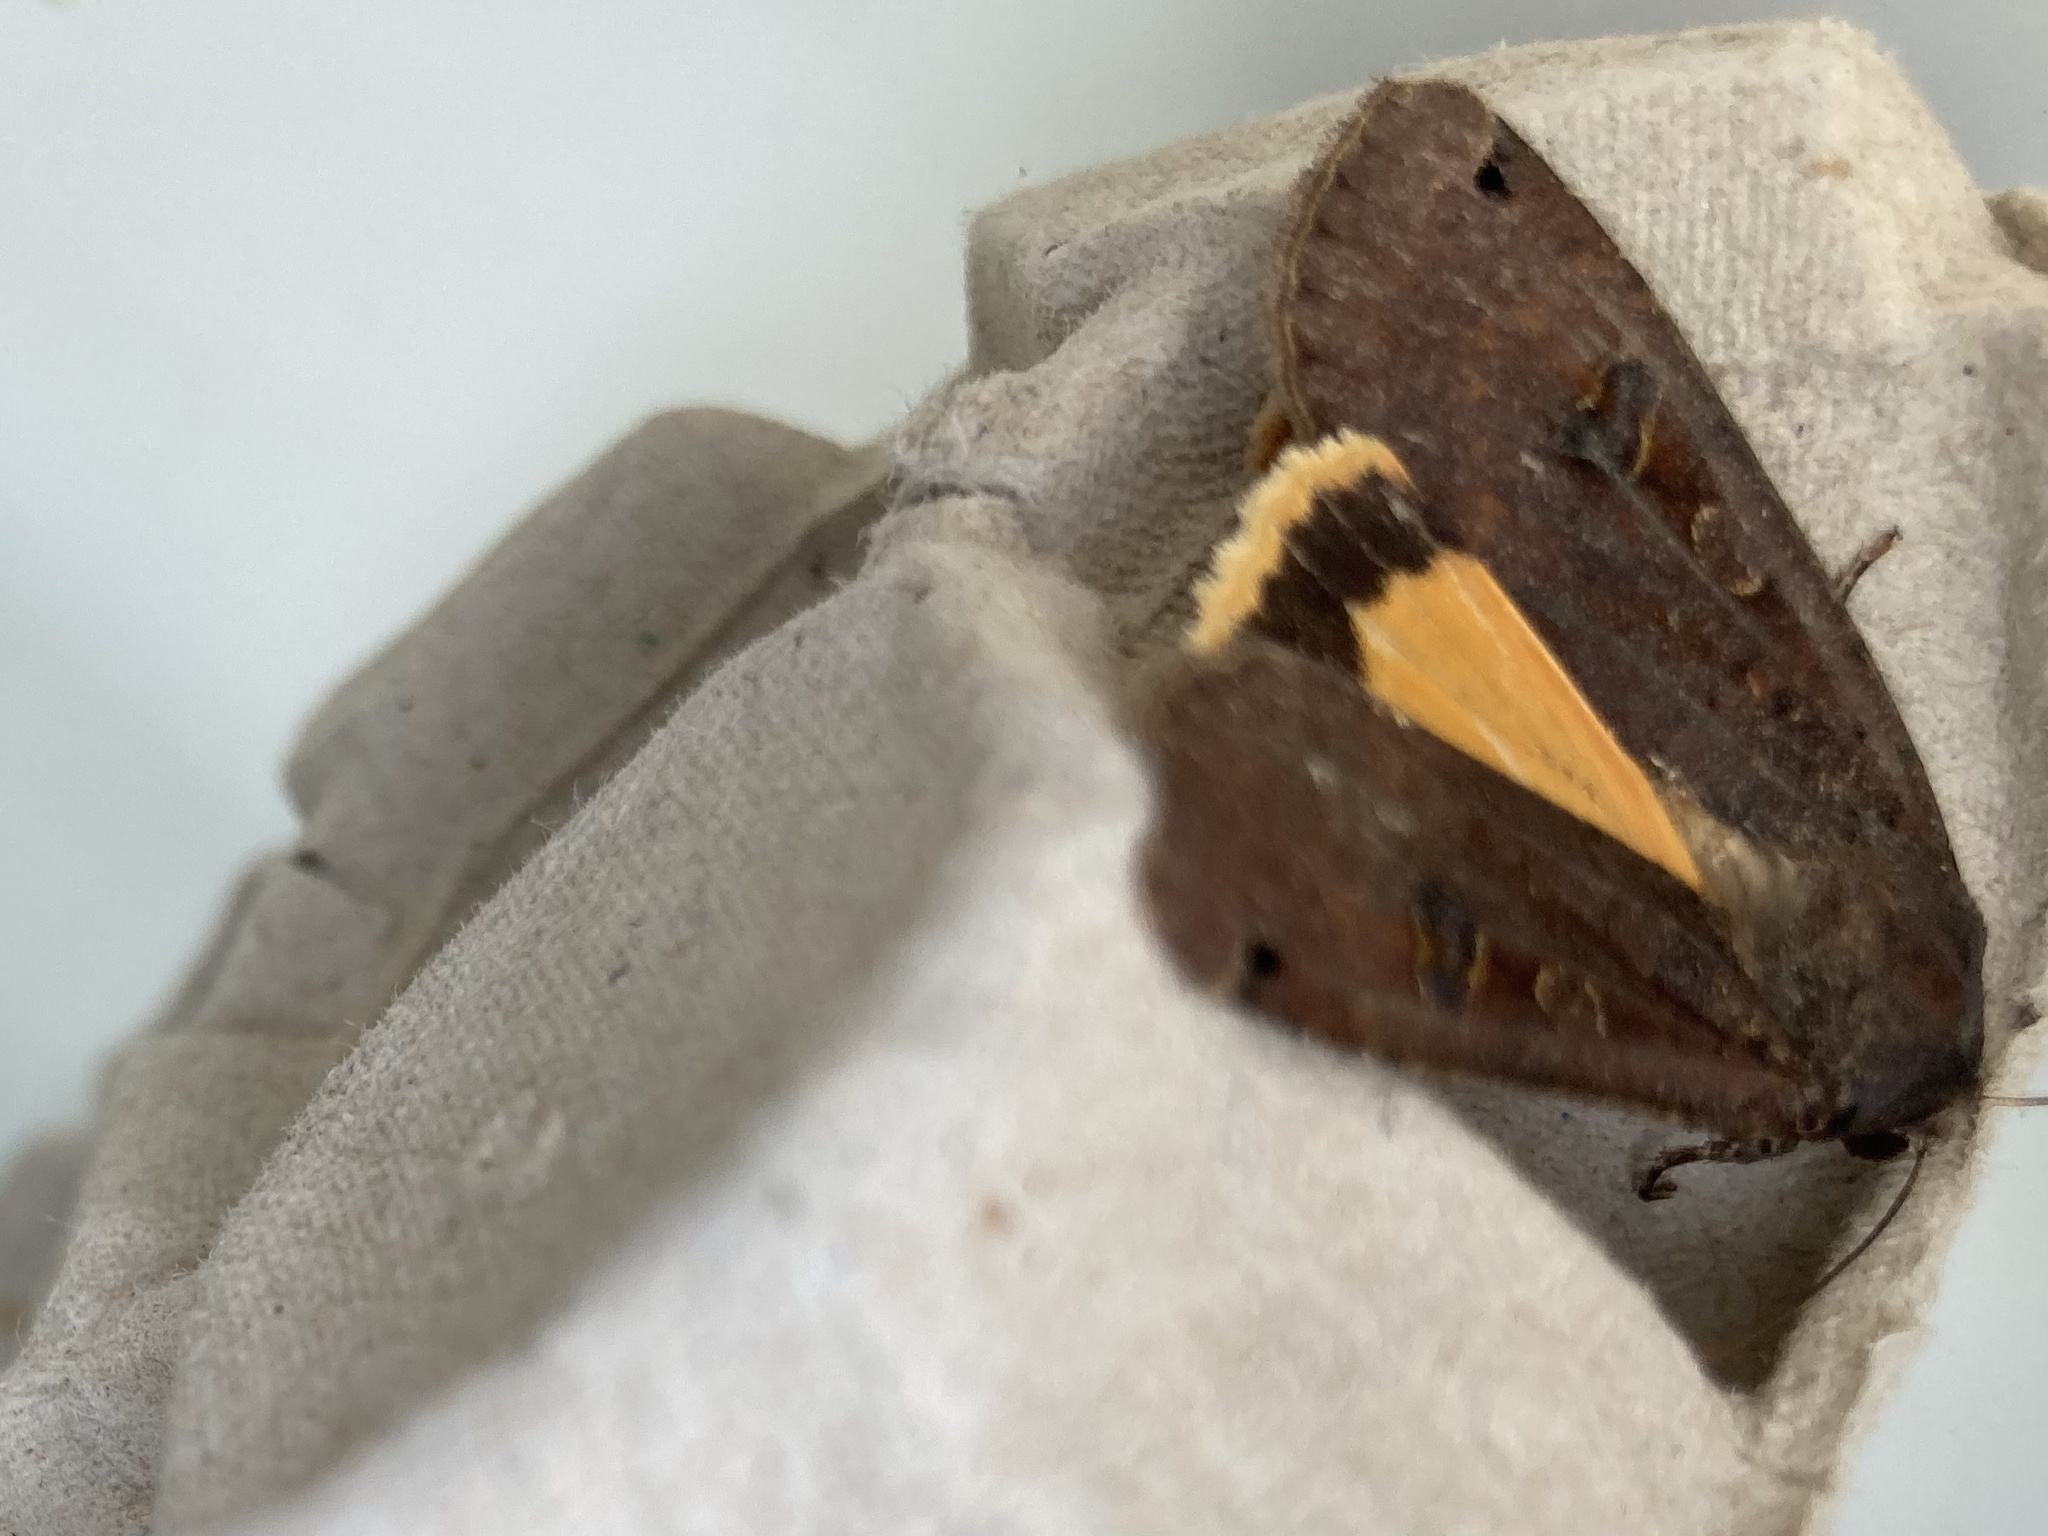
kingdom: Animalia
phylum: Arthropoda
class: Insecta
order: Lepidoptera
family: Noctuidae
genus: Noctua
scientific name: Noctua pronuba
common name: Large yellow underwing
